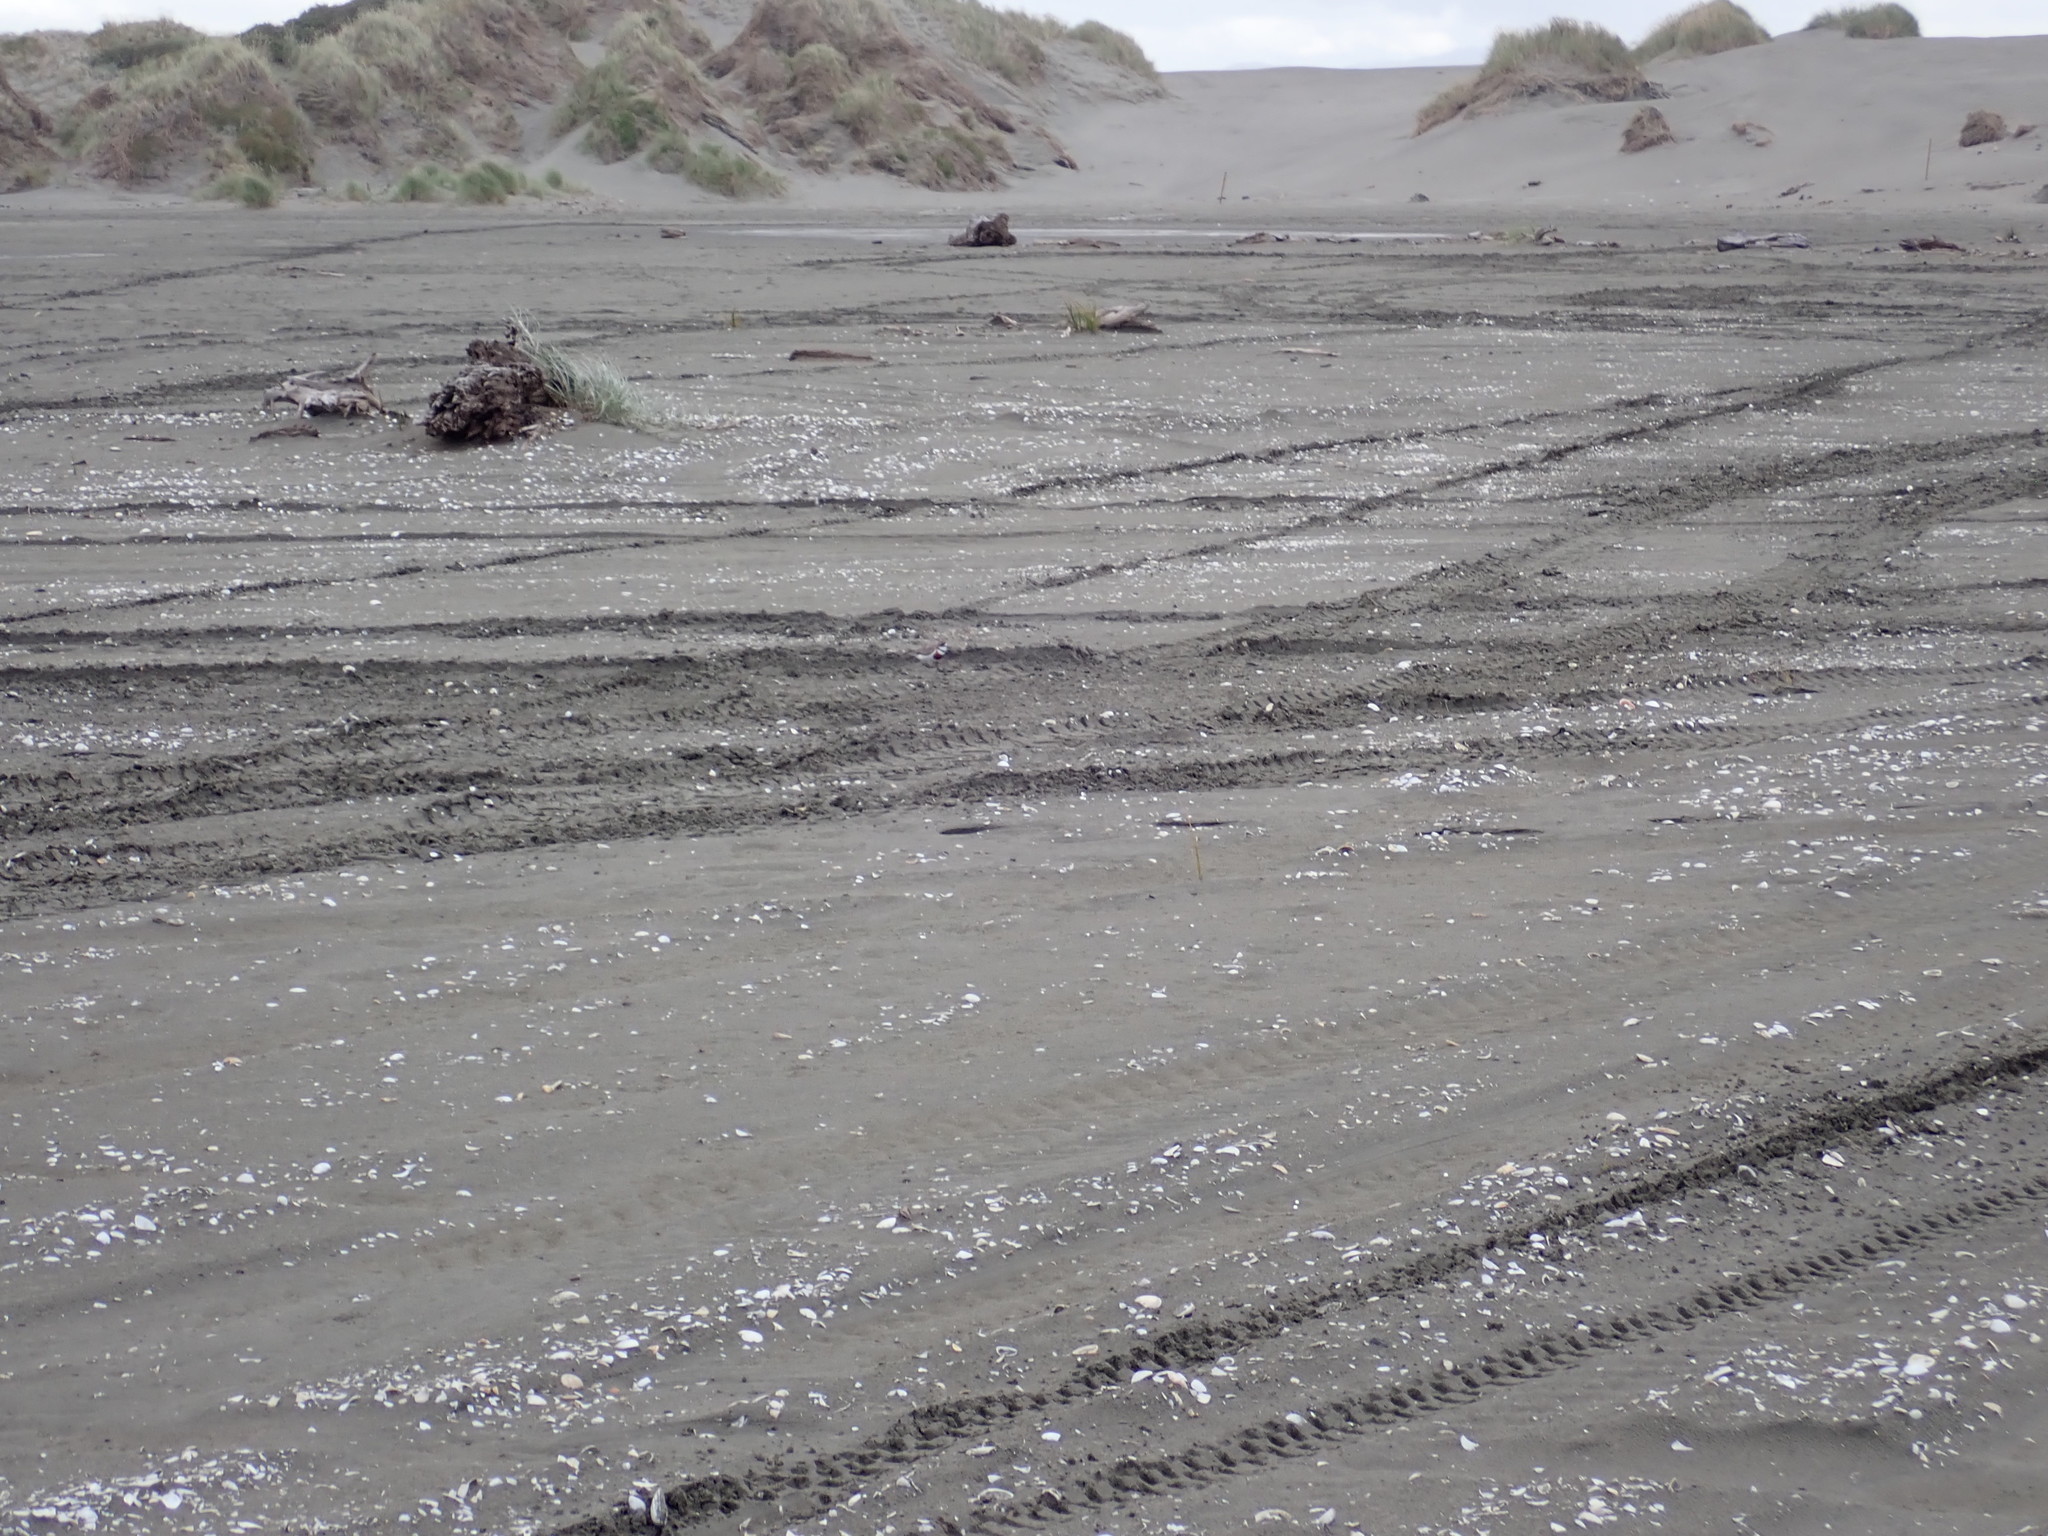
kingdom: Animalia
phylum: Chordata
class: Aves
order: Charadriiformes
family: Charadriidae
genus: Anarhynchus
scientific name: Anarhynchus
